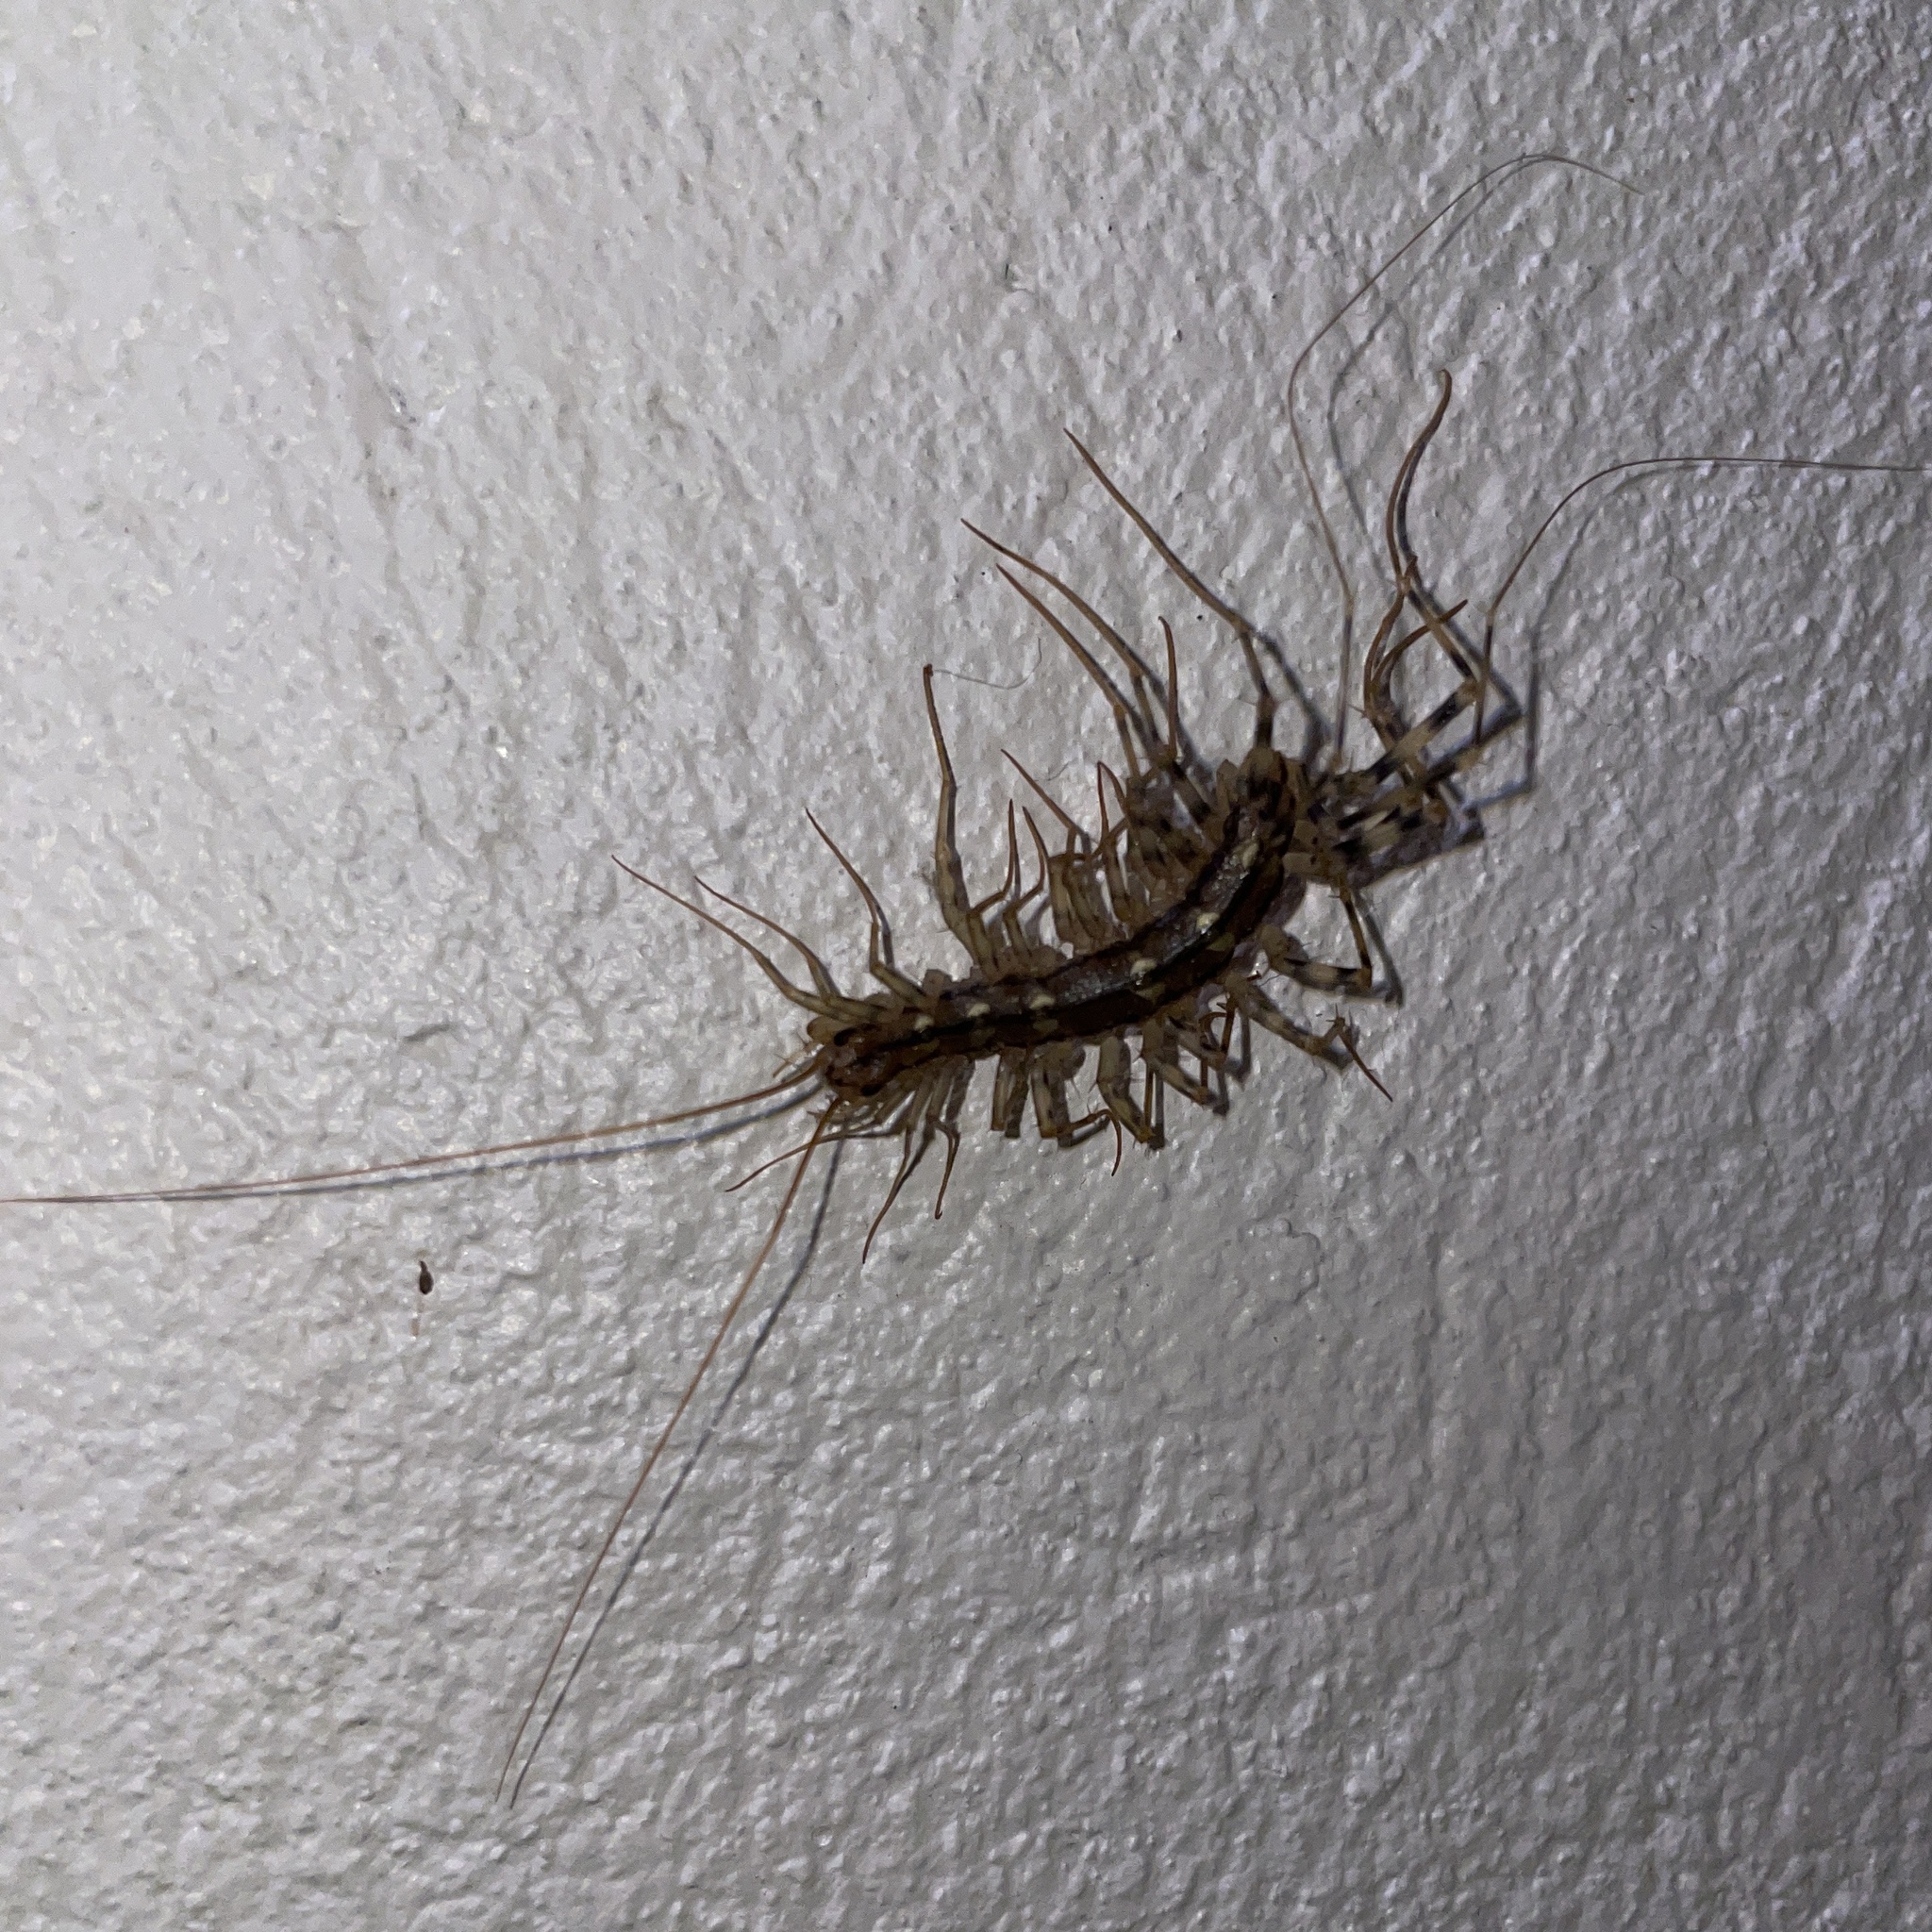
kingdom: Animalia
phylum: Arthropoda
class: Chilopoda
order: Scutigeromorpha
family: Scutigeridae
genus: Scutigera
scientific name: Scutigera coleoptrata
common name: House centipede
